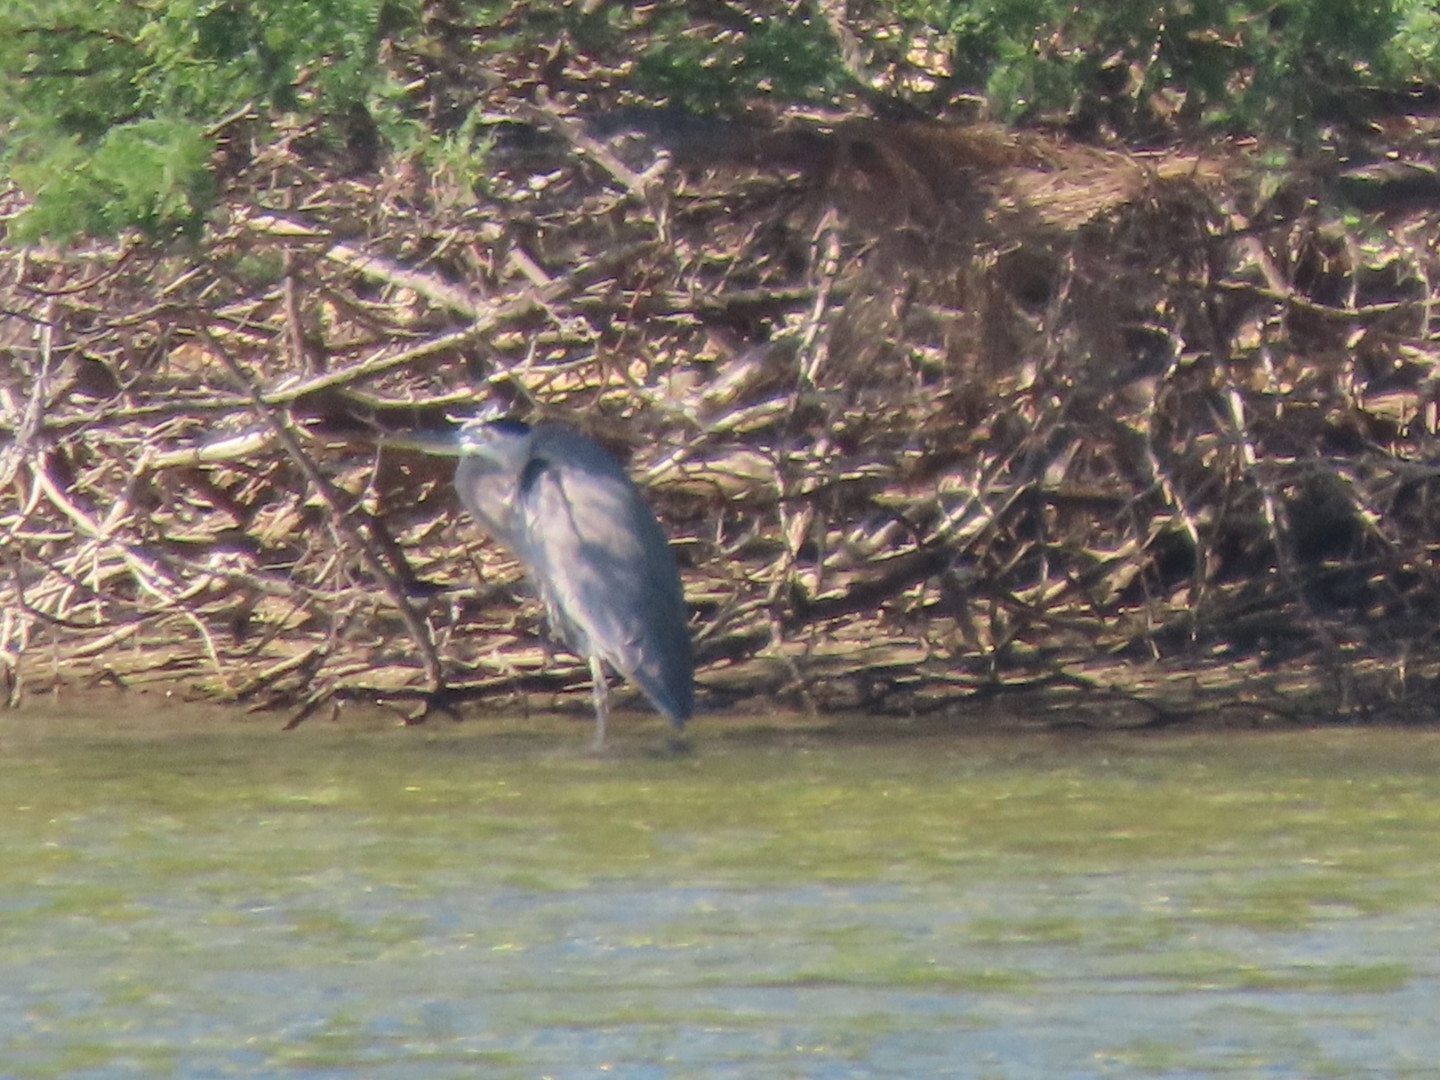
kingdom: Animalia
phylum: Chordata
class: Aves
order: Pelecaniformes
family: Ardeidae
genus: Ardea
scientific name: Ardea herodias
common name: Great blue heron
